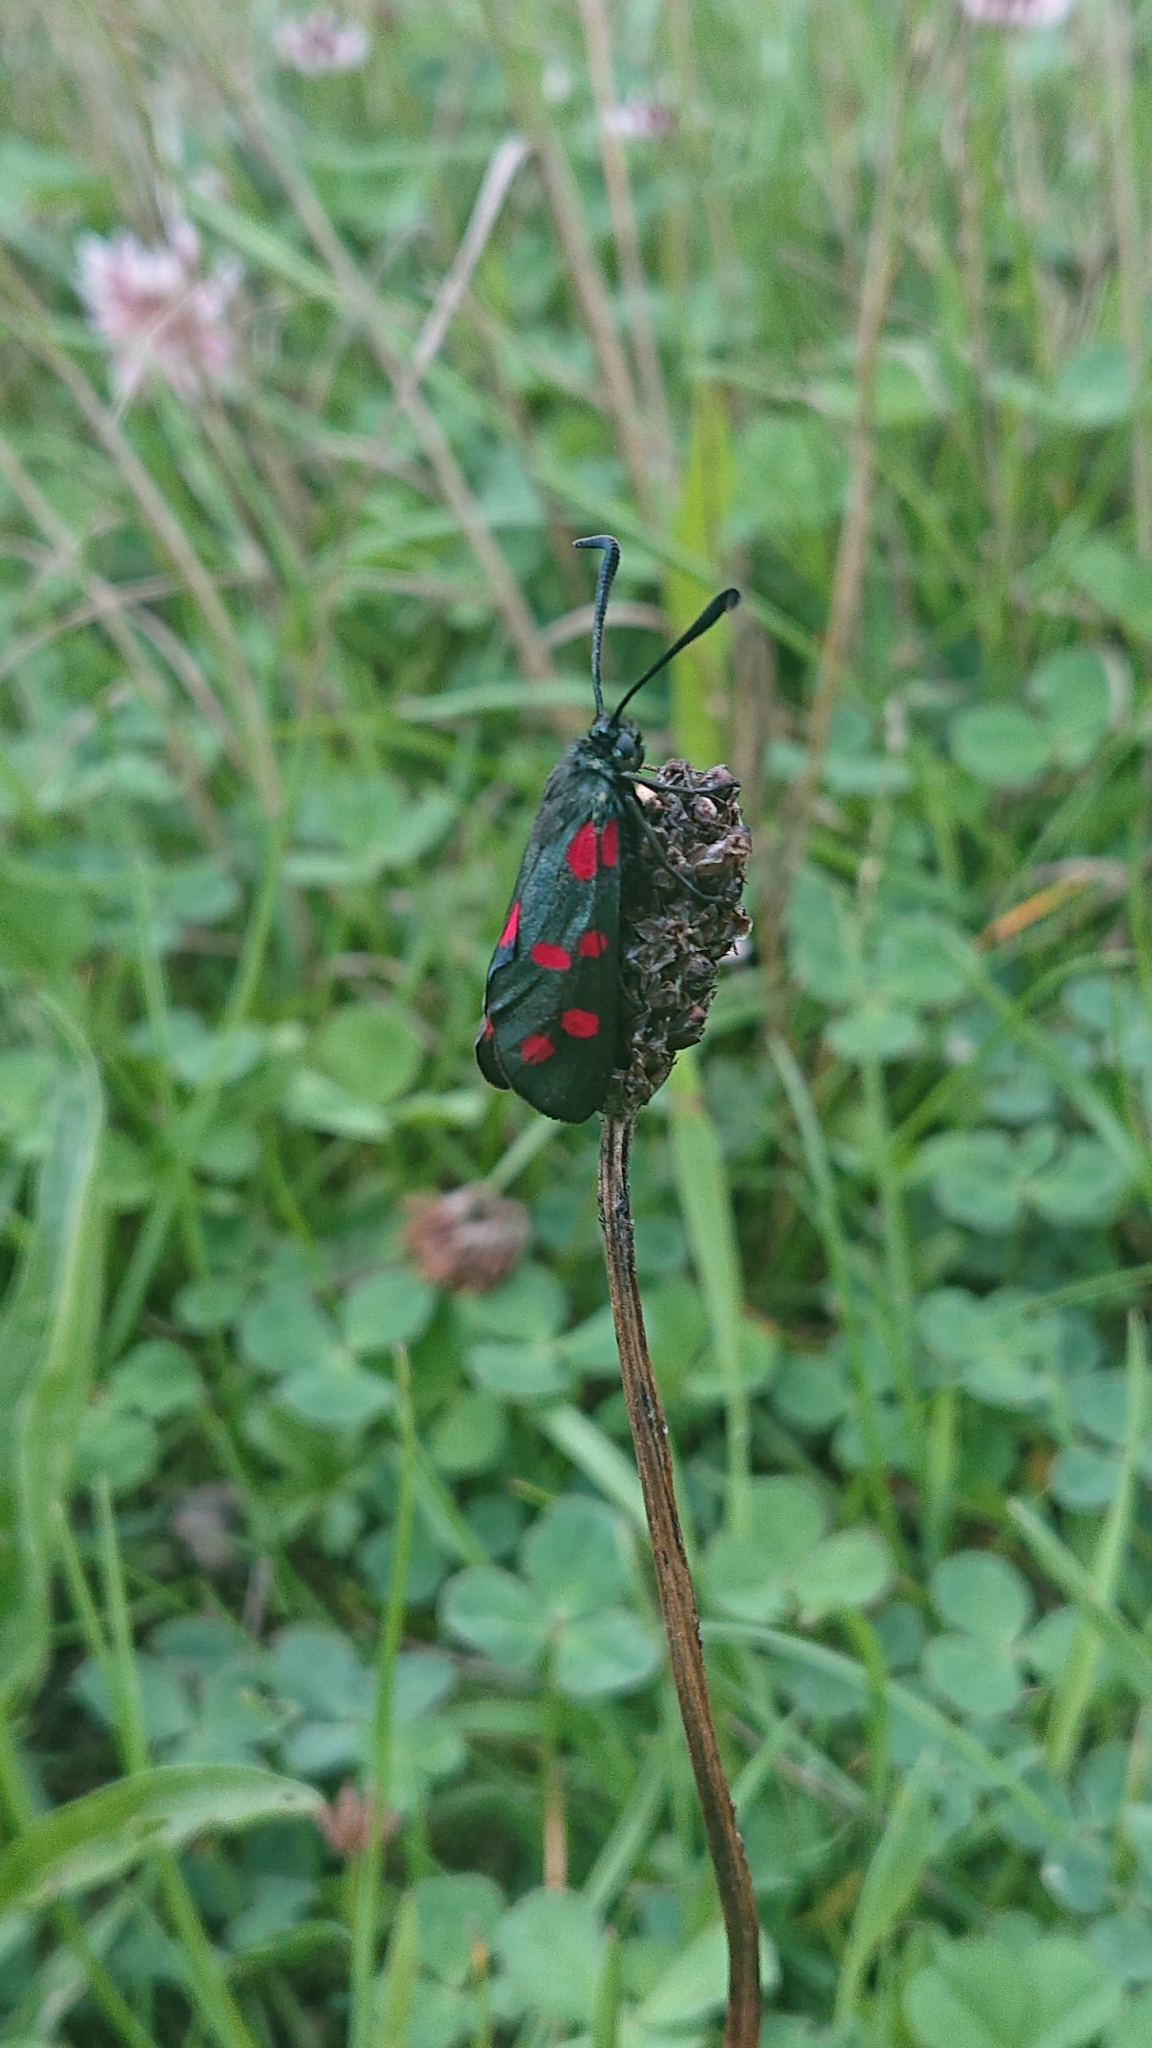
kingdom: Animalia
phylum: Arthropoda
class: Insecta
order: Lepidoptera
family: Zygaenidae
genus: Zygaena
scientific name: Zygaena filipendulae
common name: Six-spot burnet
